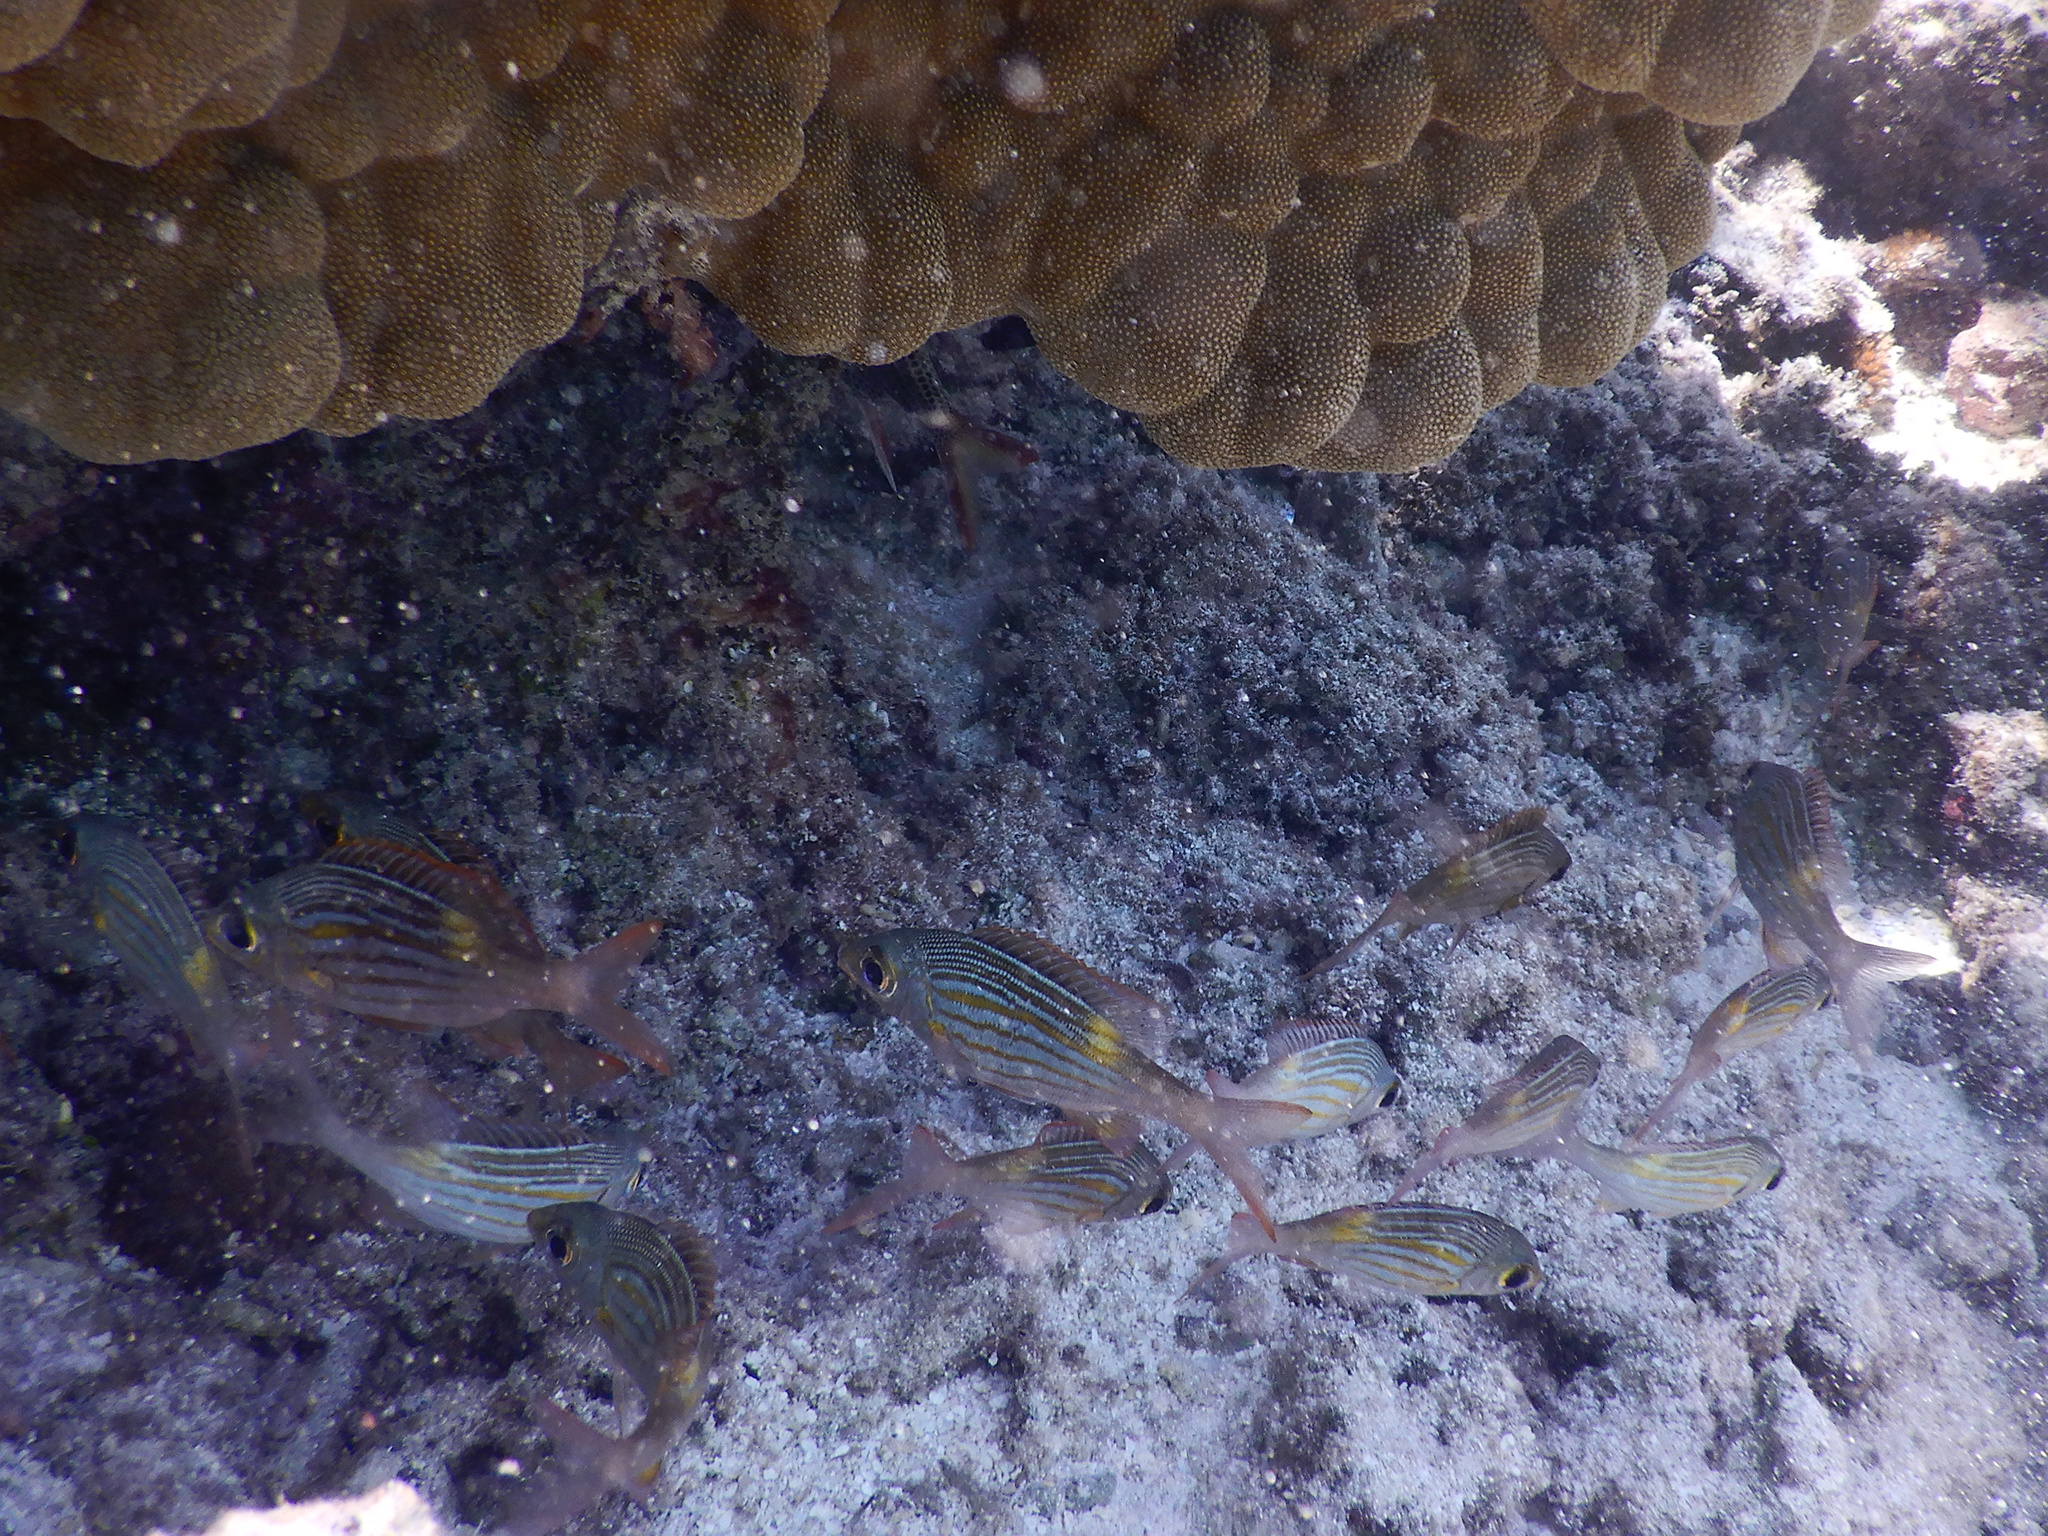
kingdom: Animalia
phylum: Chordata
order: Perciformes
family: Lethrinidae
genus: Gnathodentex
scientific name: Gnathodentex aureolineatus
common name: Gold-lined sea bream
